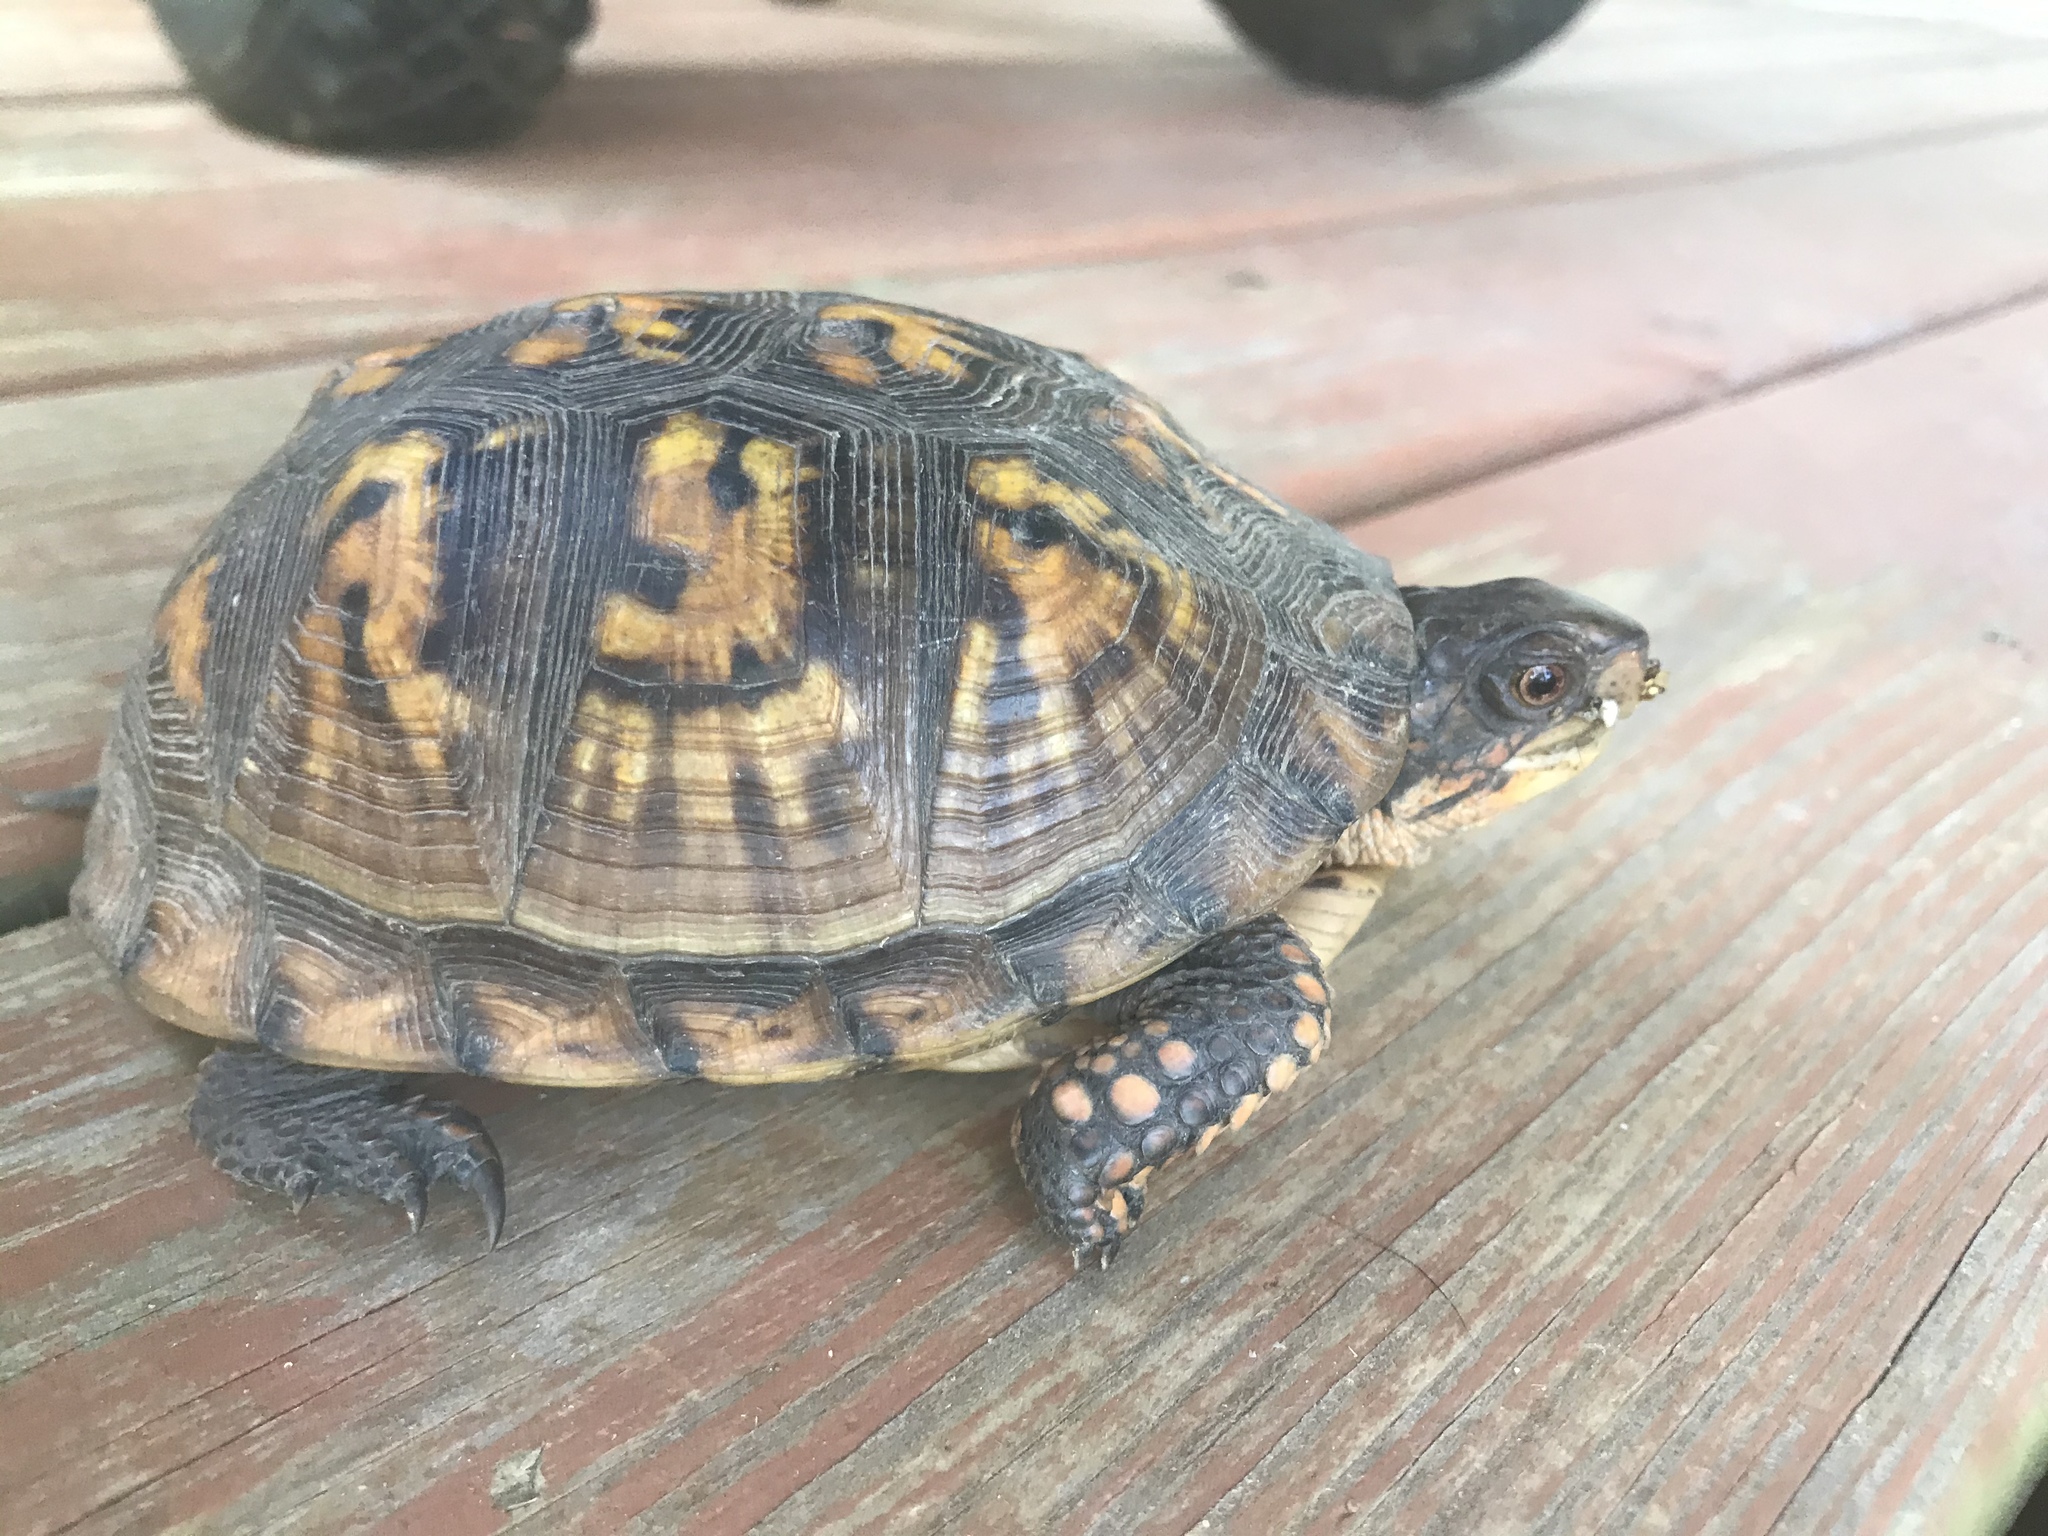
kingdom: Animalia
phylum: Chordata
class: Testudines
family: Emydidae
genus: Terrapene
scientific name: Terrapene carolina
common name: Common box turtle
